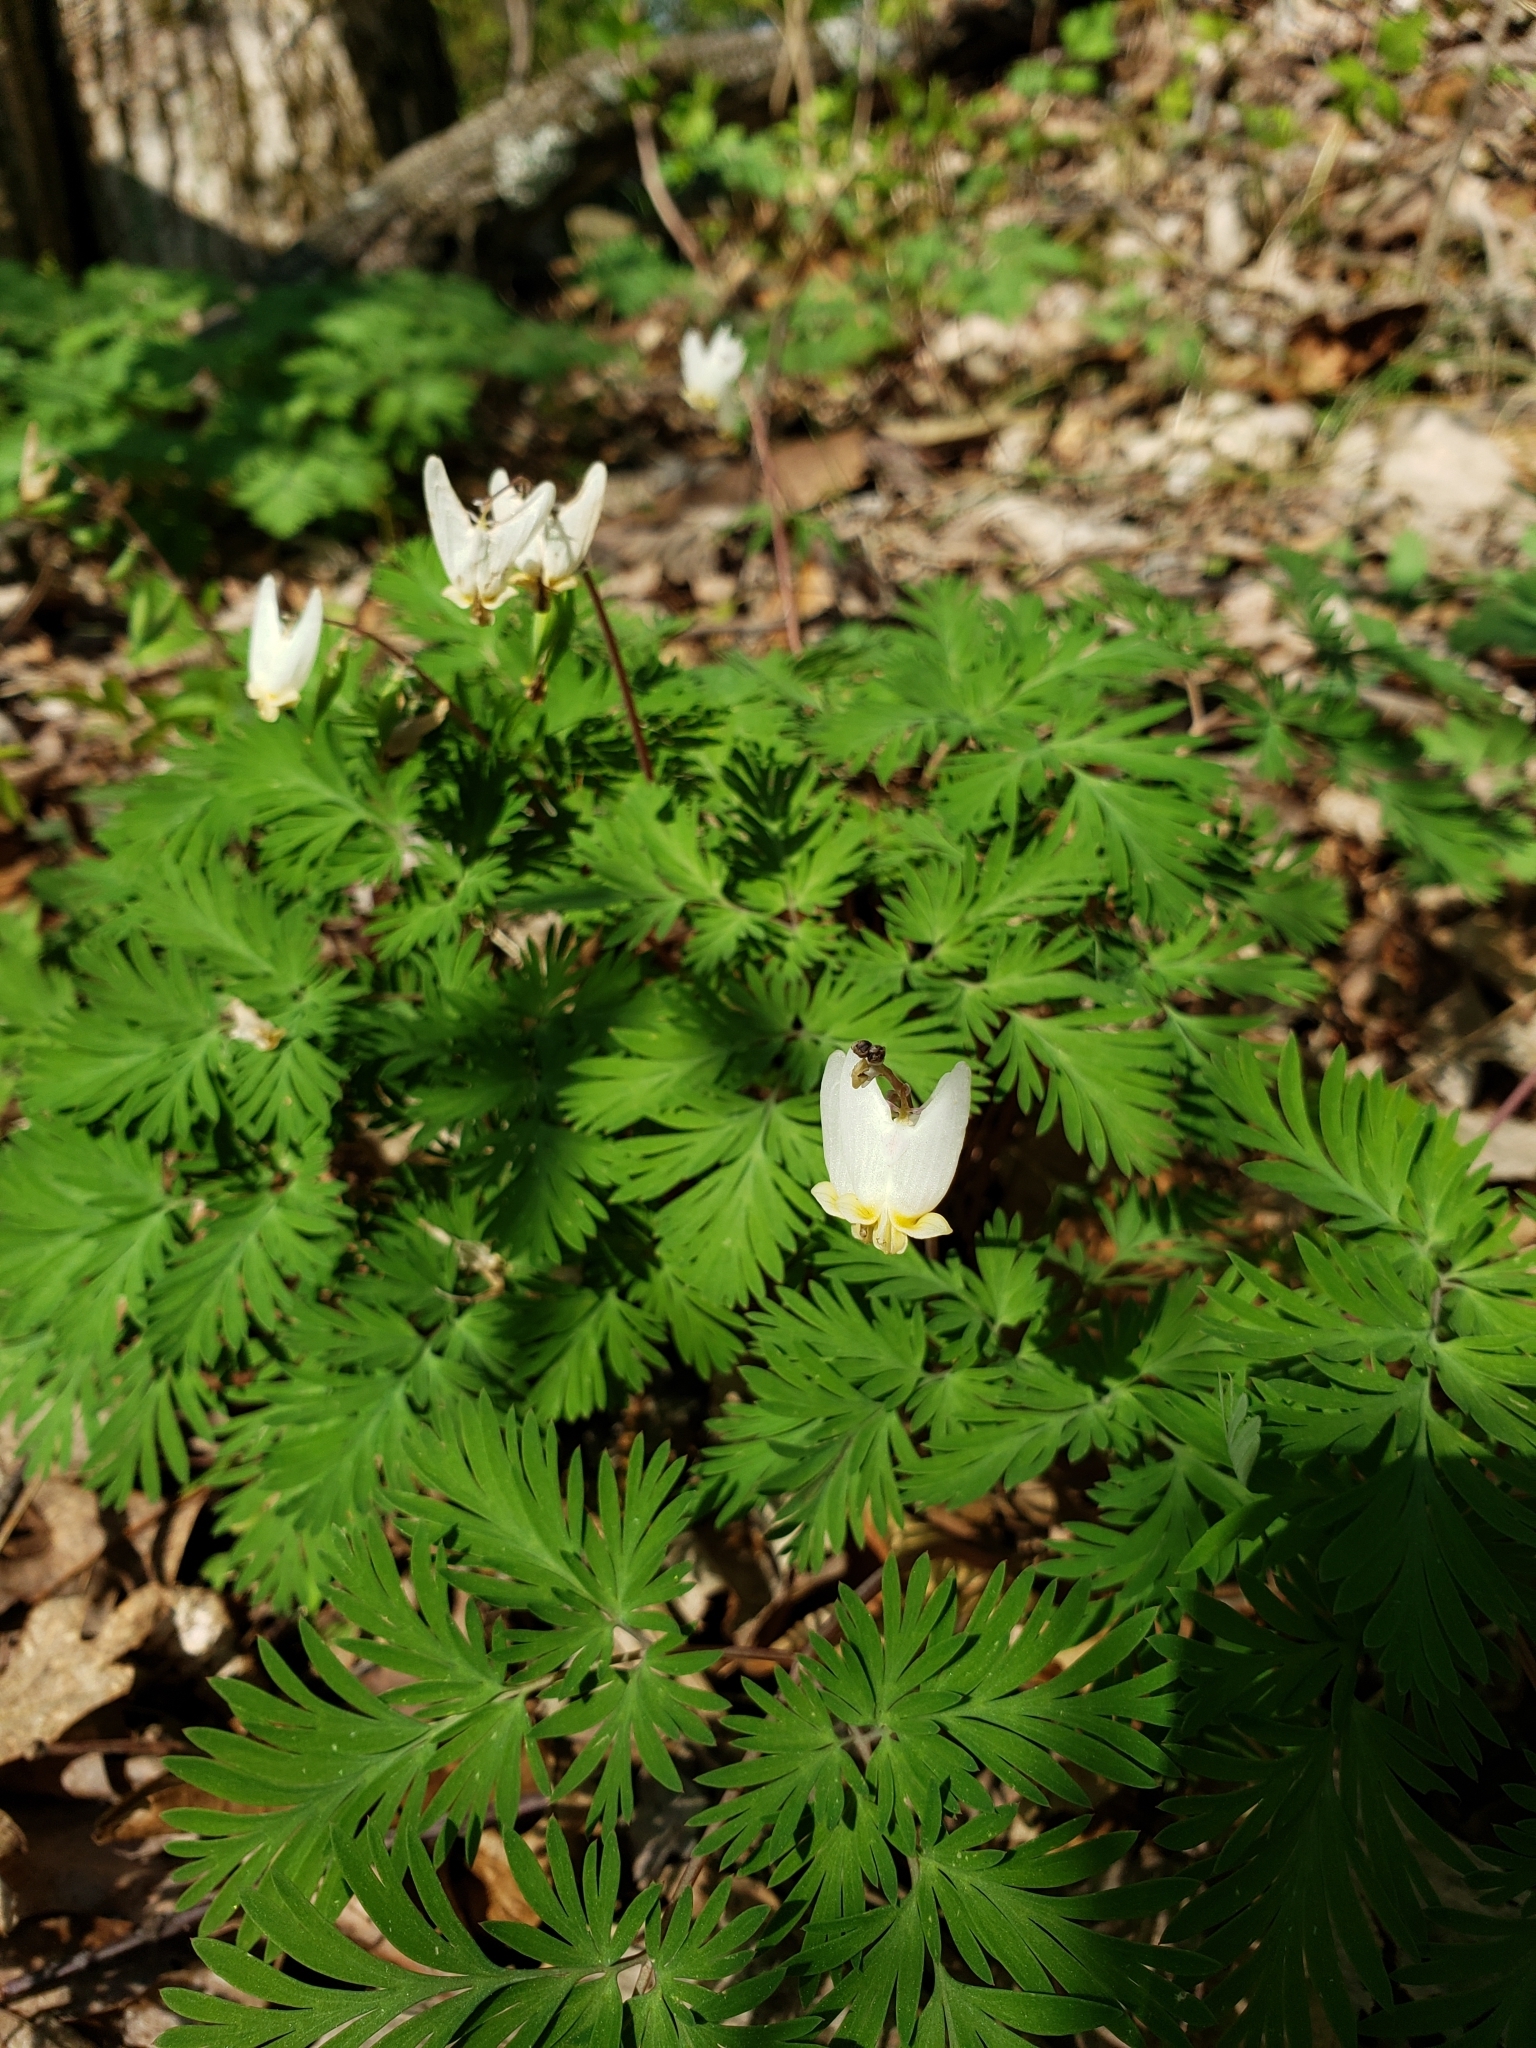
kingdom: Plantae
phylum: Tracheophyta
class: Magnoliopsida
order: Ranunculales
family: Papaveraceae
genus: Dicentra
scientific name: Dicentra cucullaria
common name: Dutchman's breeches
